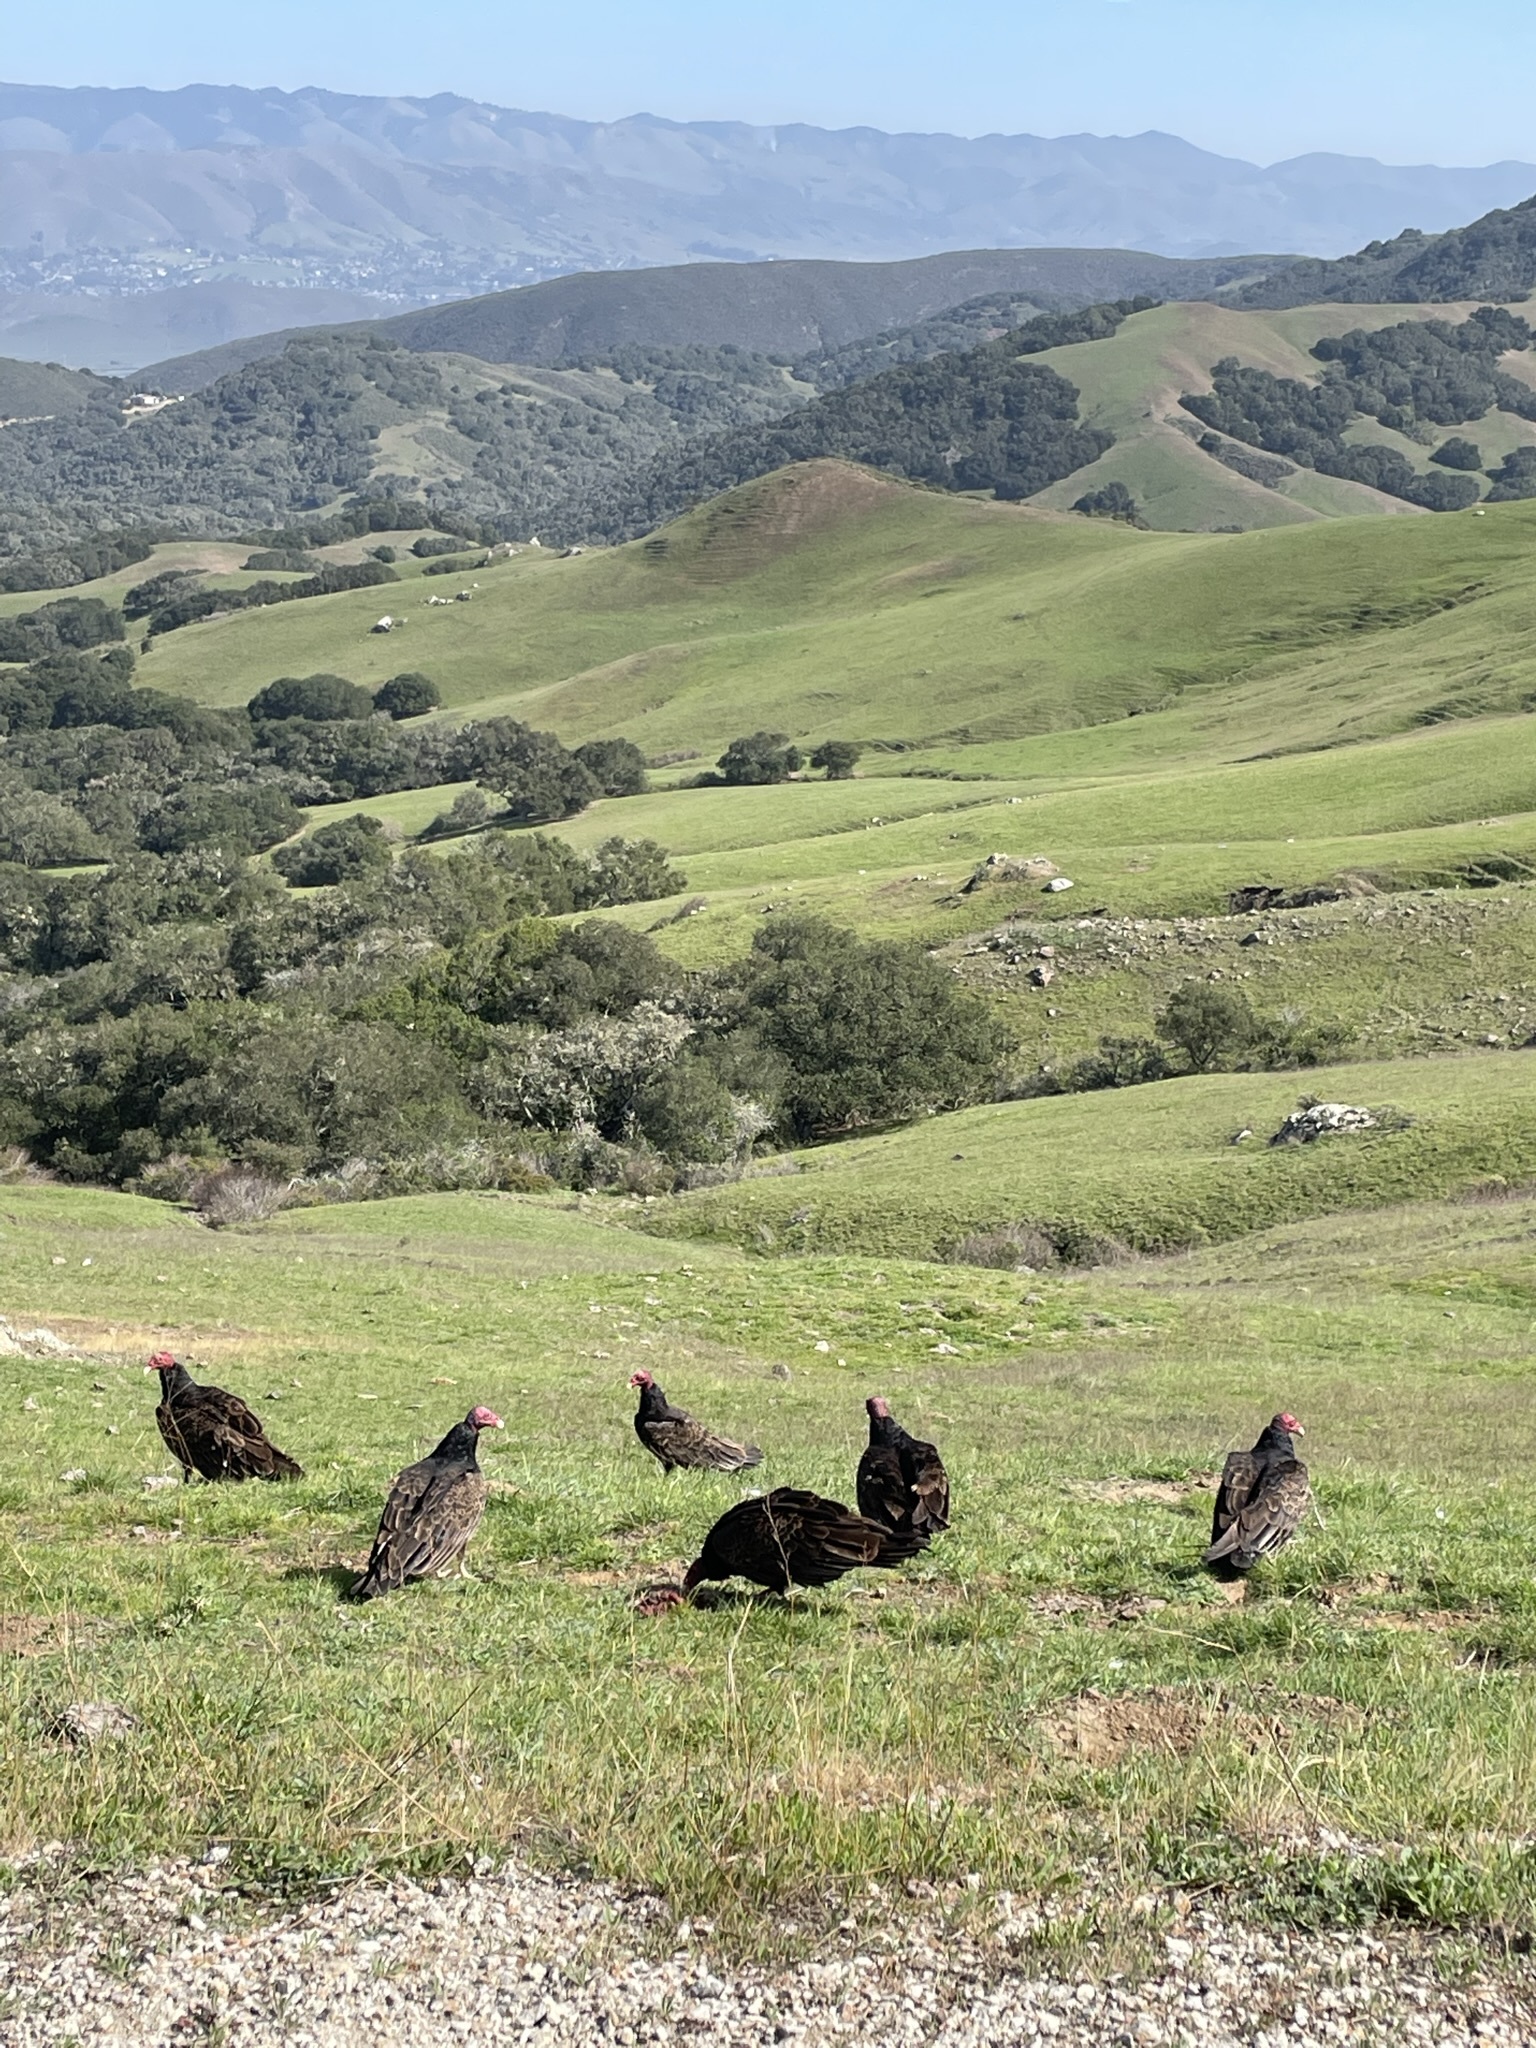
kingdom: Animalia
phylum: Chordata
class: Aves
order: Accipitriformes
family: Cathartidae
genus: Cathartes
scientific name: Cathartes aura
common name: Turkey vulture
